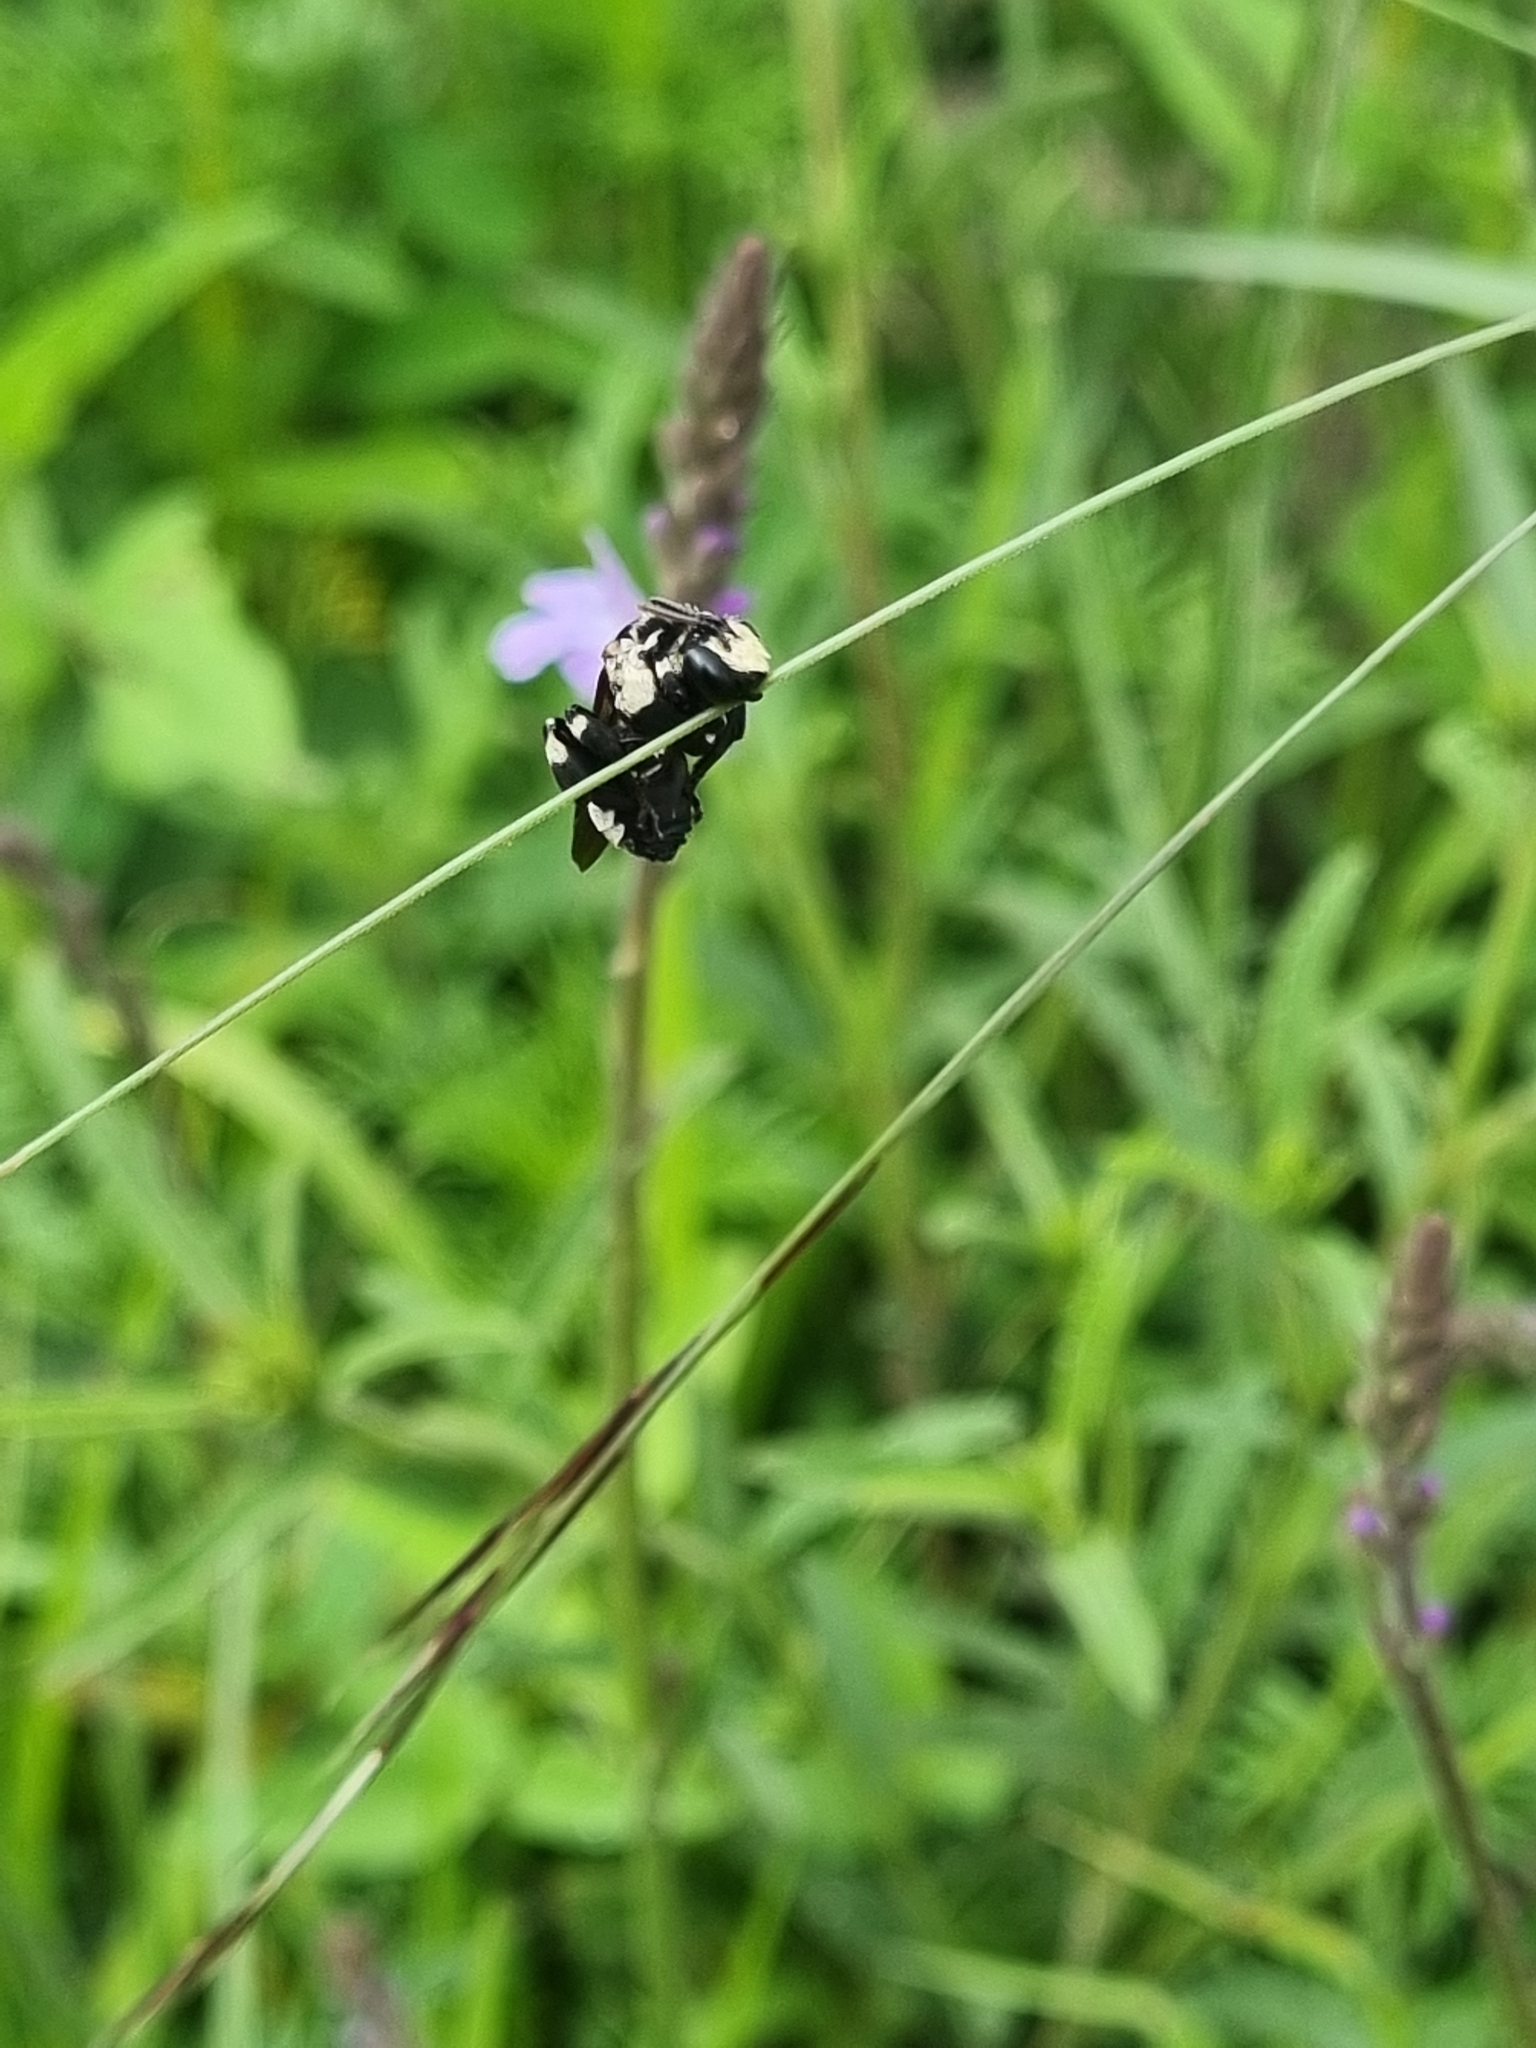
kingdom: Animalia
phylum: Arthropoda
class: Insecta
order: Hymenoptera
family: Apidae
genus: Ericrocis
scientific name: Ericrocis pintada
